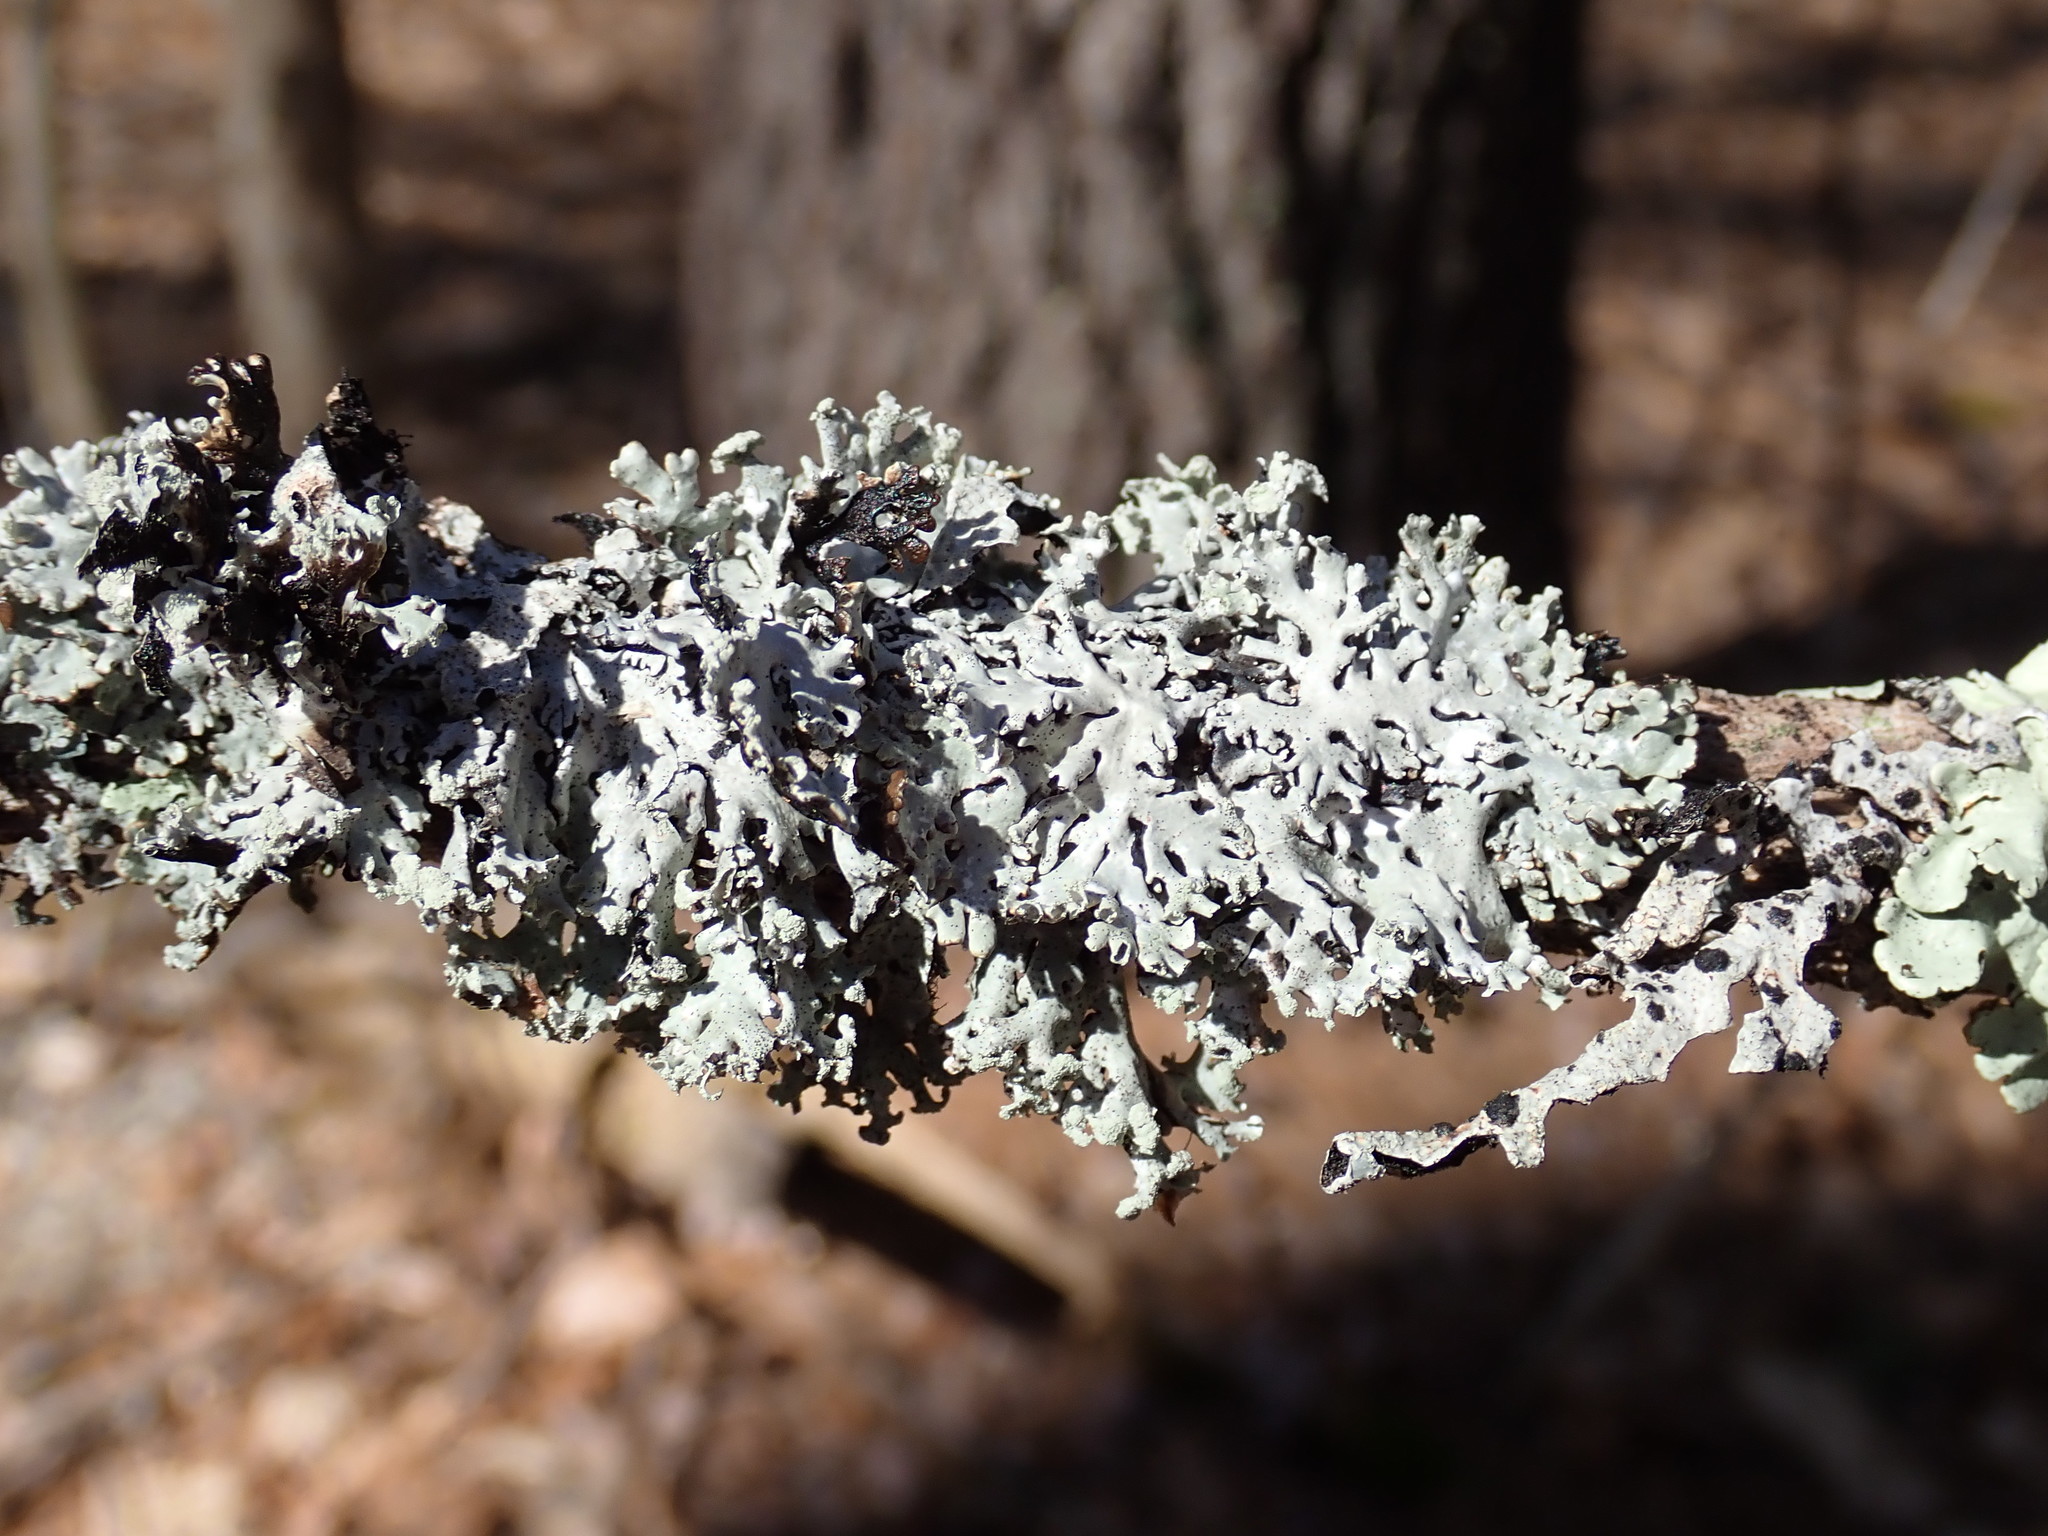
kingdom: Fungi
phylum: Ascomycota
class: Lecanoromycetes
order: Lecanorales
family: Parmeliaceae
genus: Hypogymnia
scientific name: Hypogymnia physodes
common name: Dark crottle
